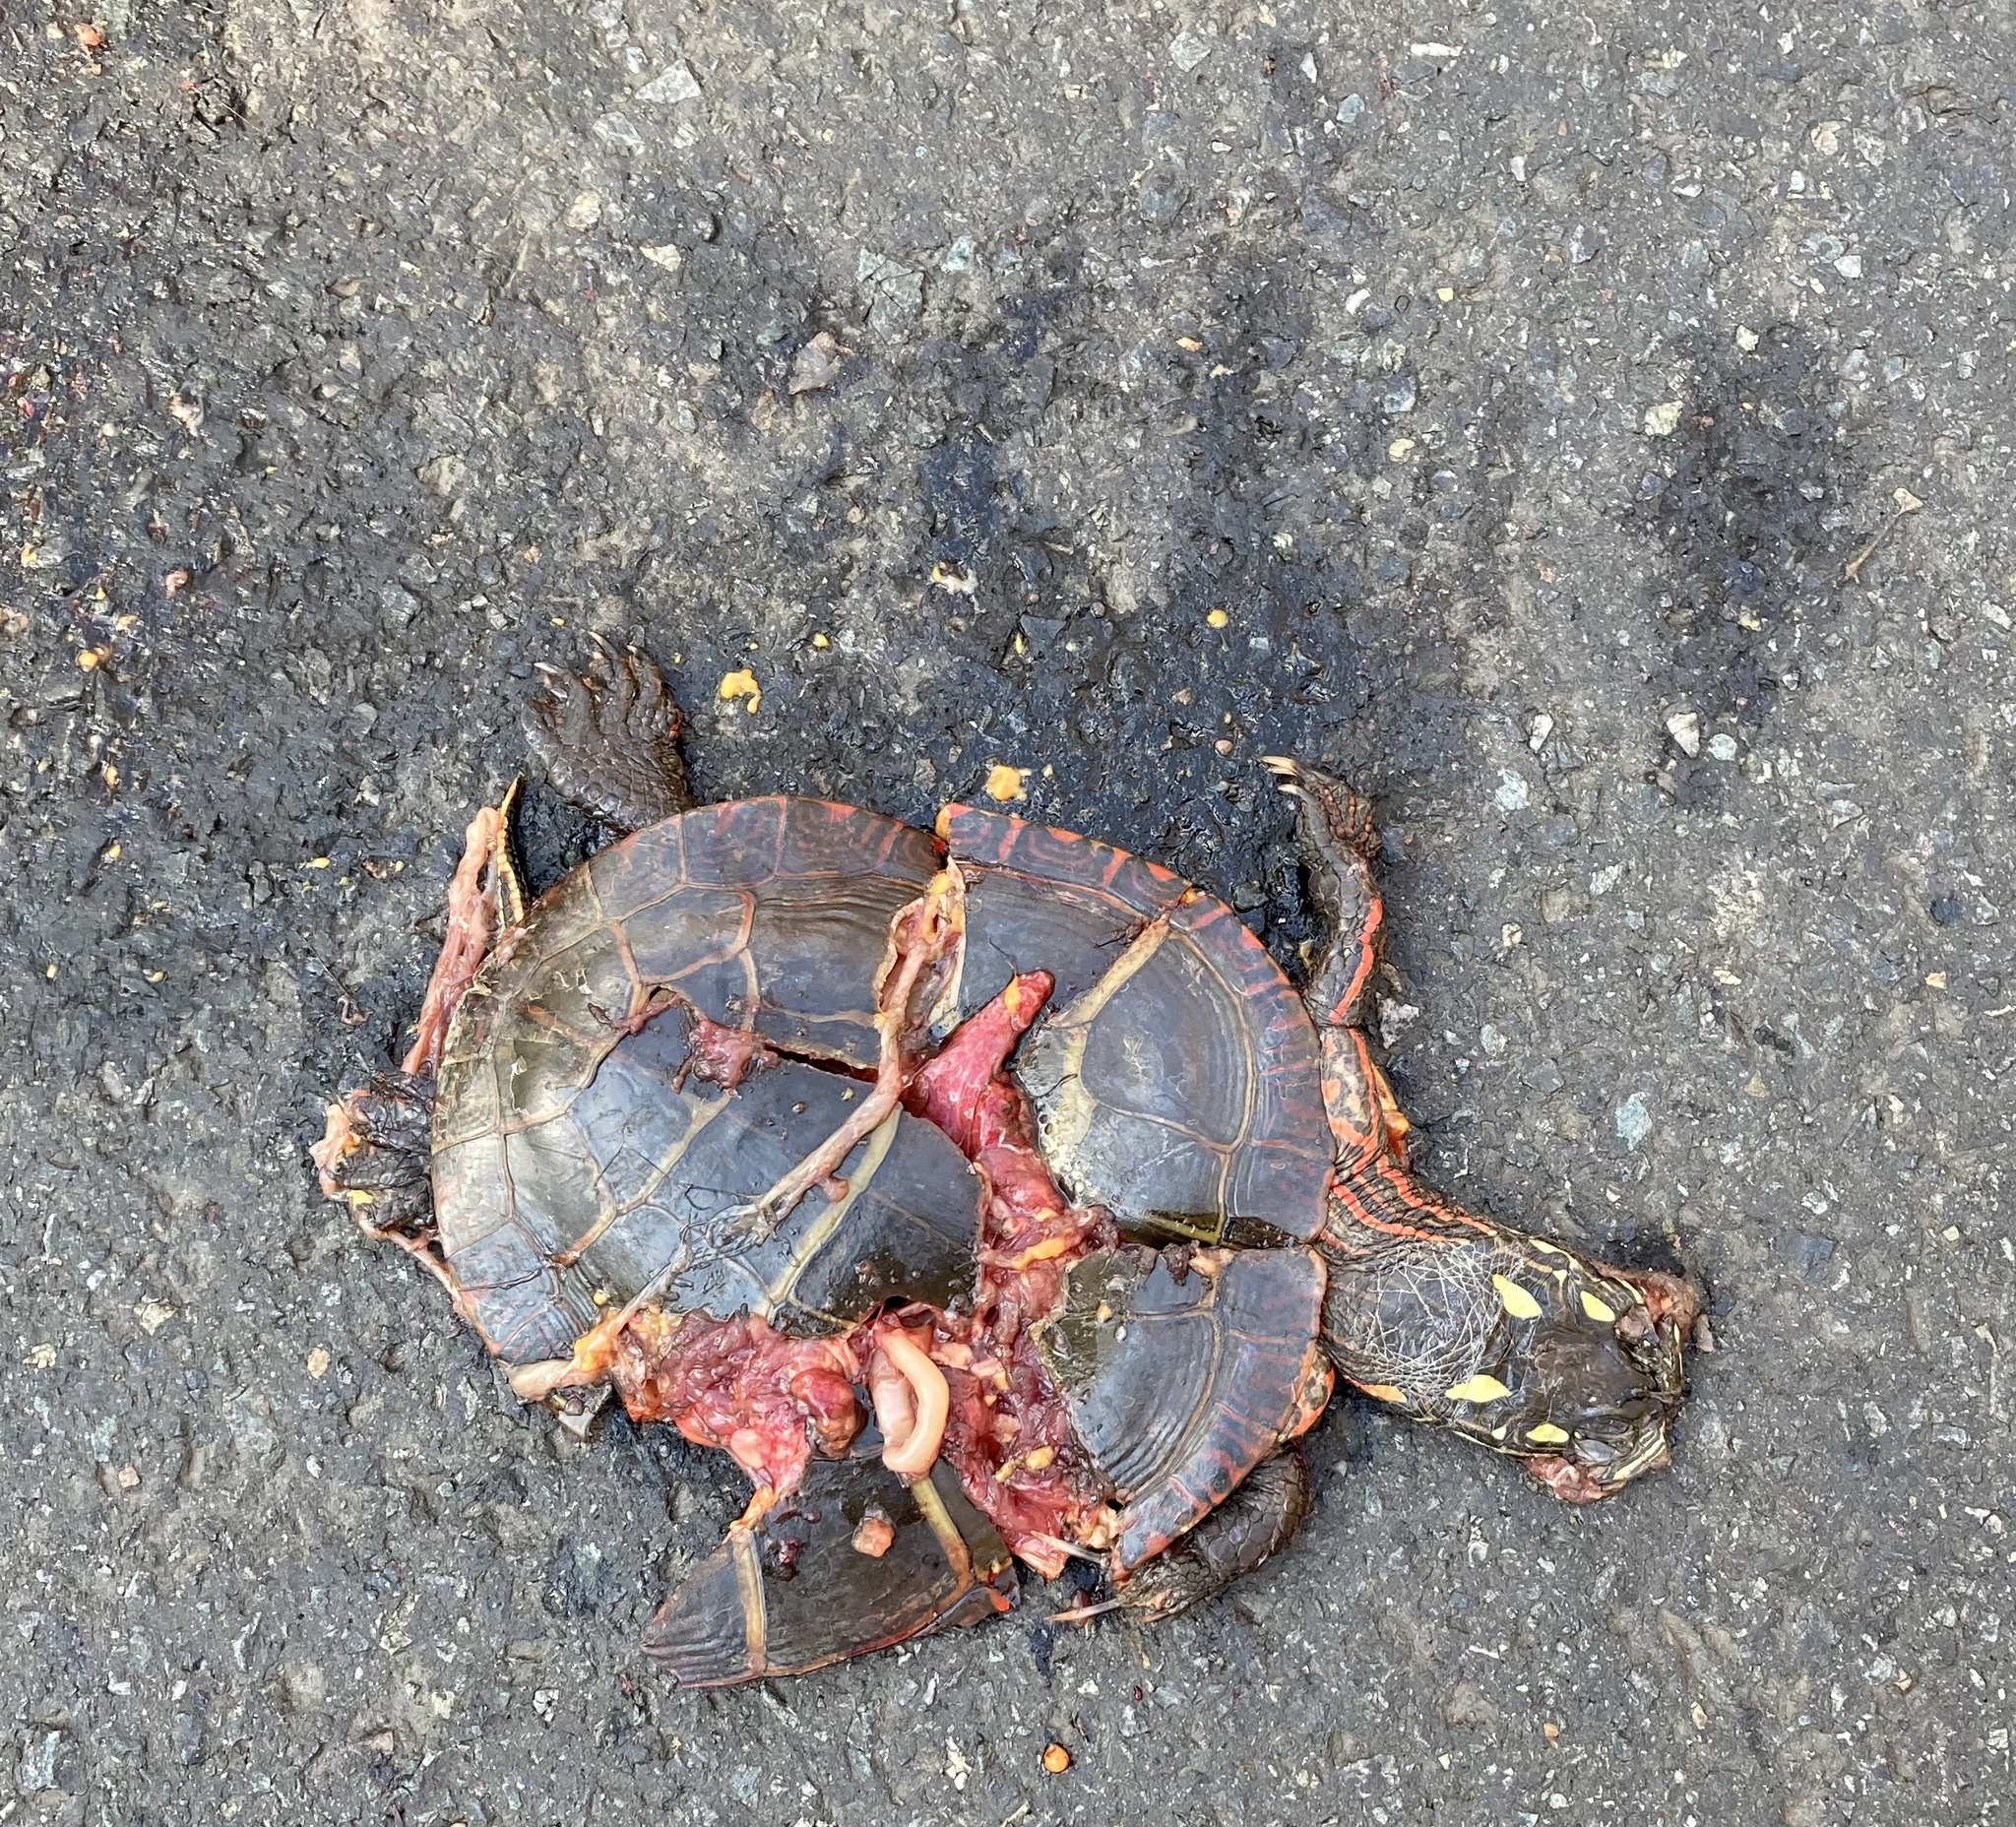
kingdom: Animalia
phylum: Chordata
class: Testudines
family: Emydidae
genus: Chrysemys
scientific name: Chrysemys picta
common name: Painted turtle
